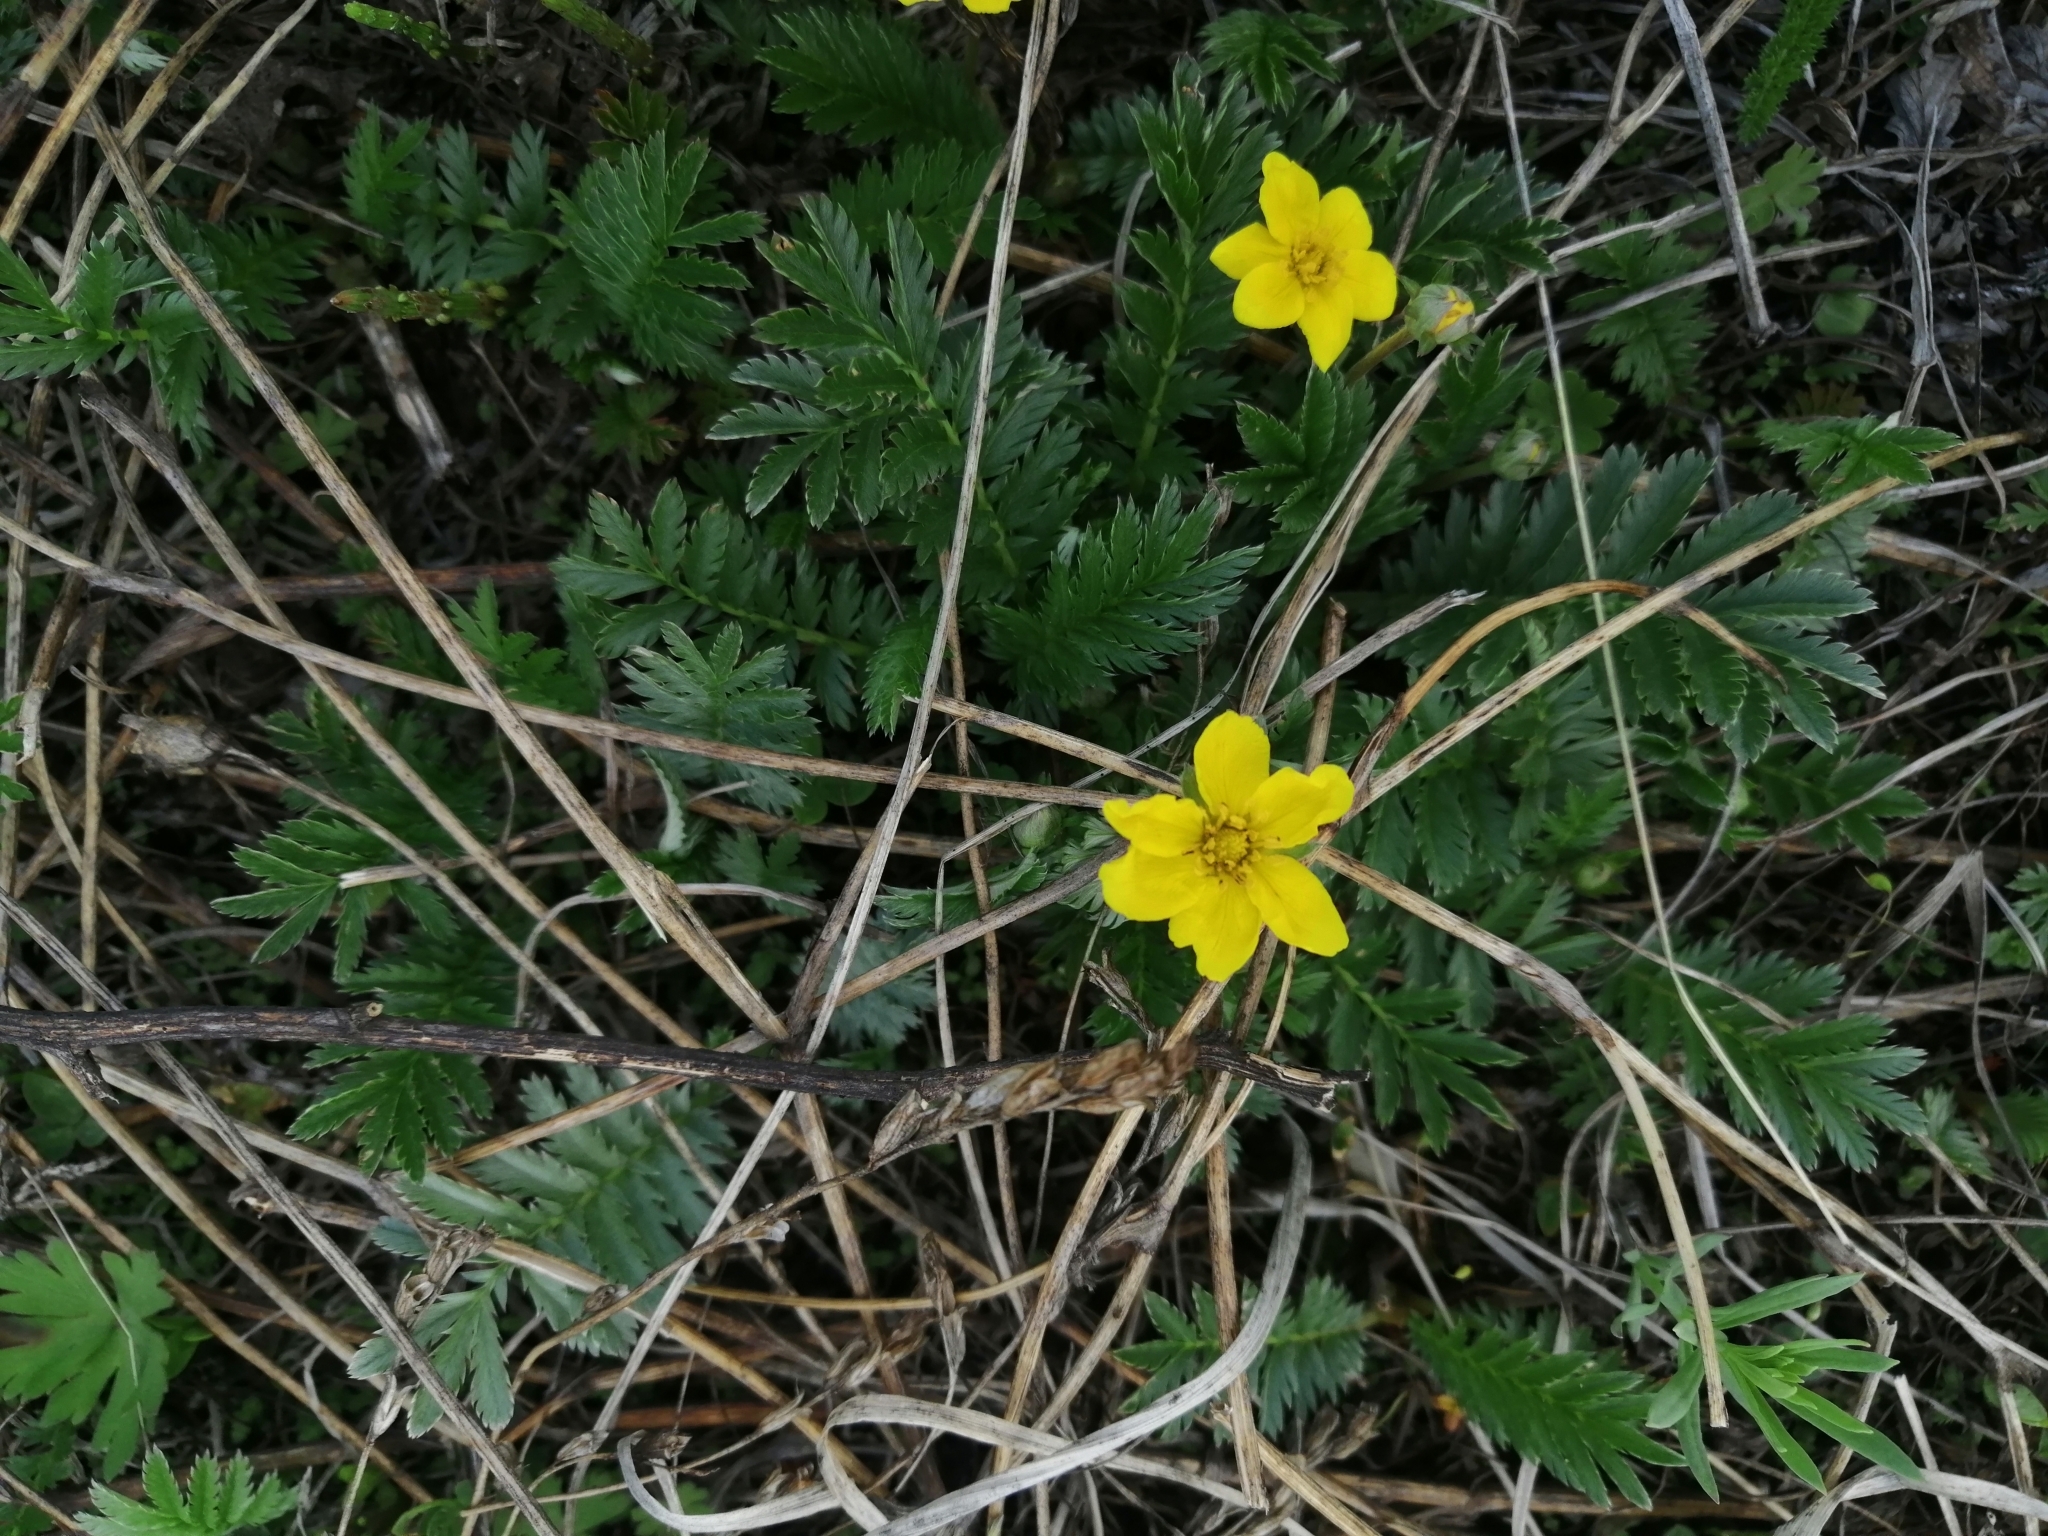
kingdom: Plantae
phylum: Tracheophyta
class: Magnoliopsida
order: Rosales
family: Rosaceae
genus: Argentina
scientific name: Argentina anserina
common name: Common silverweed
